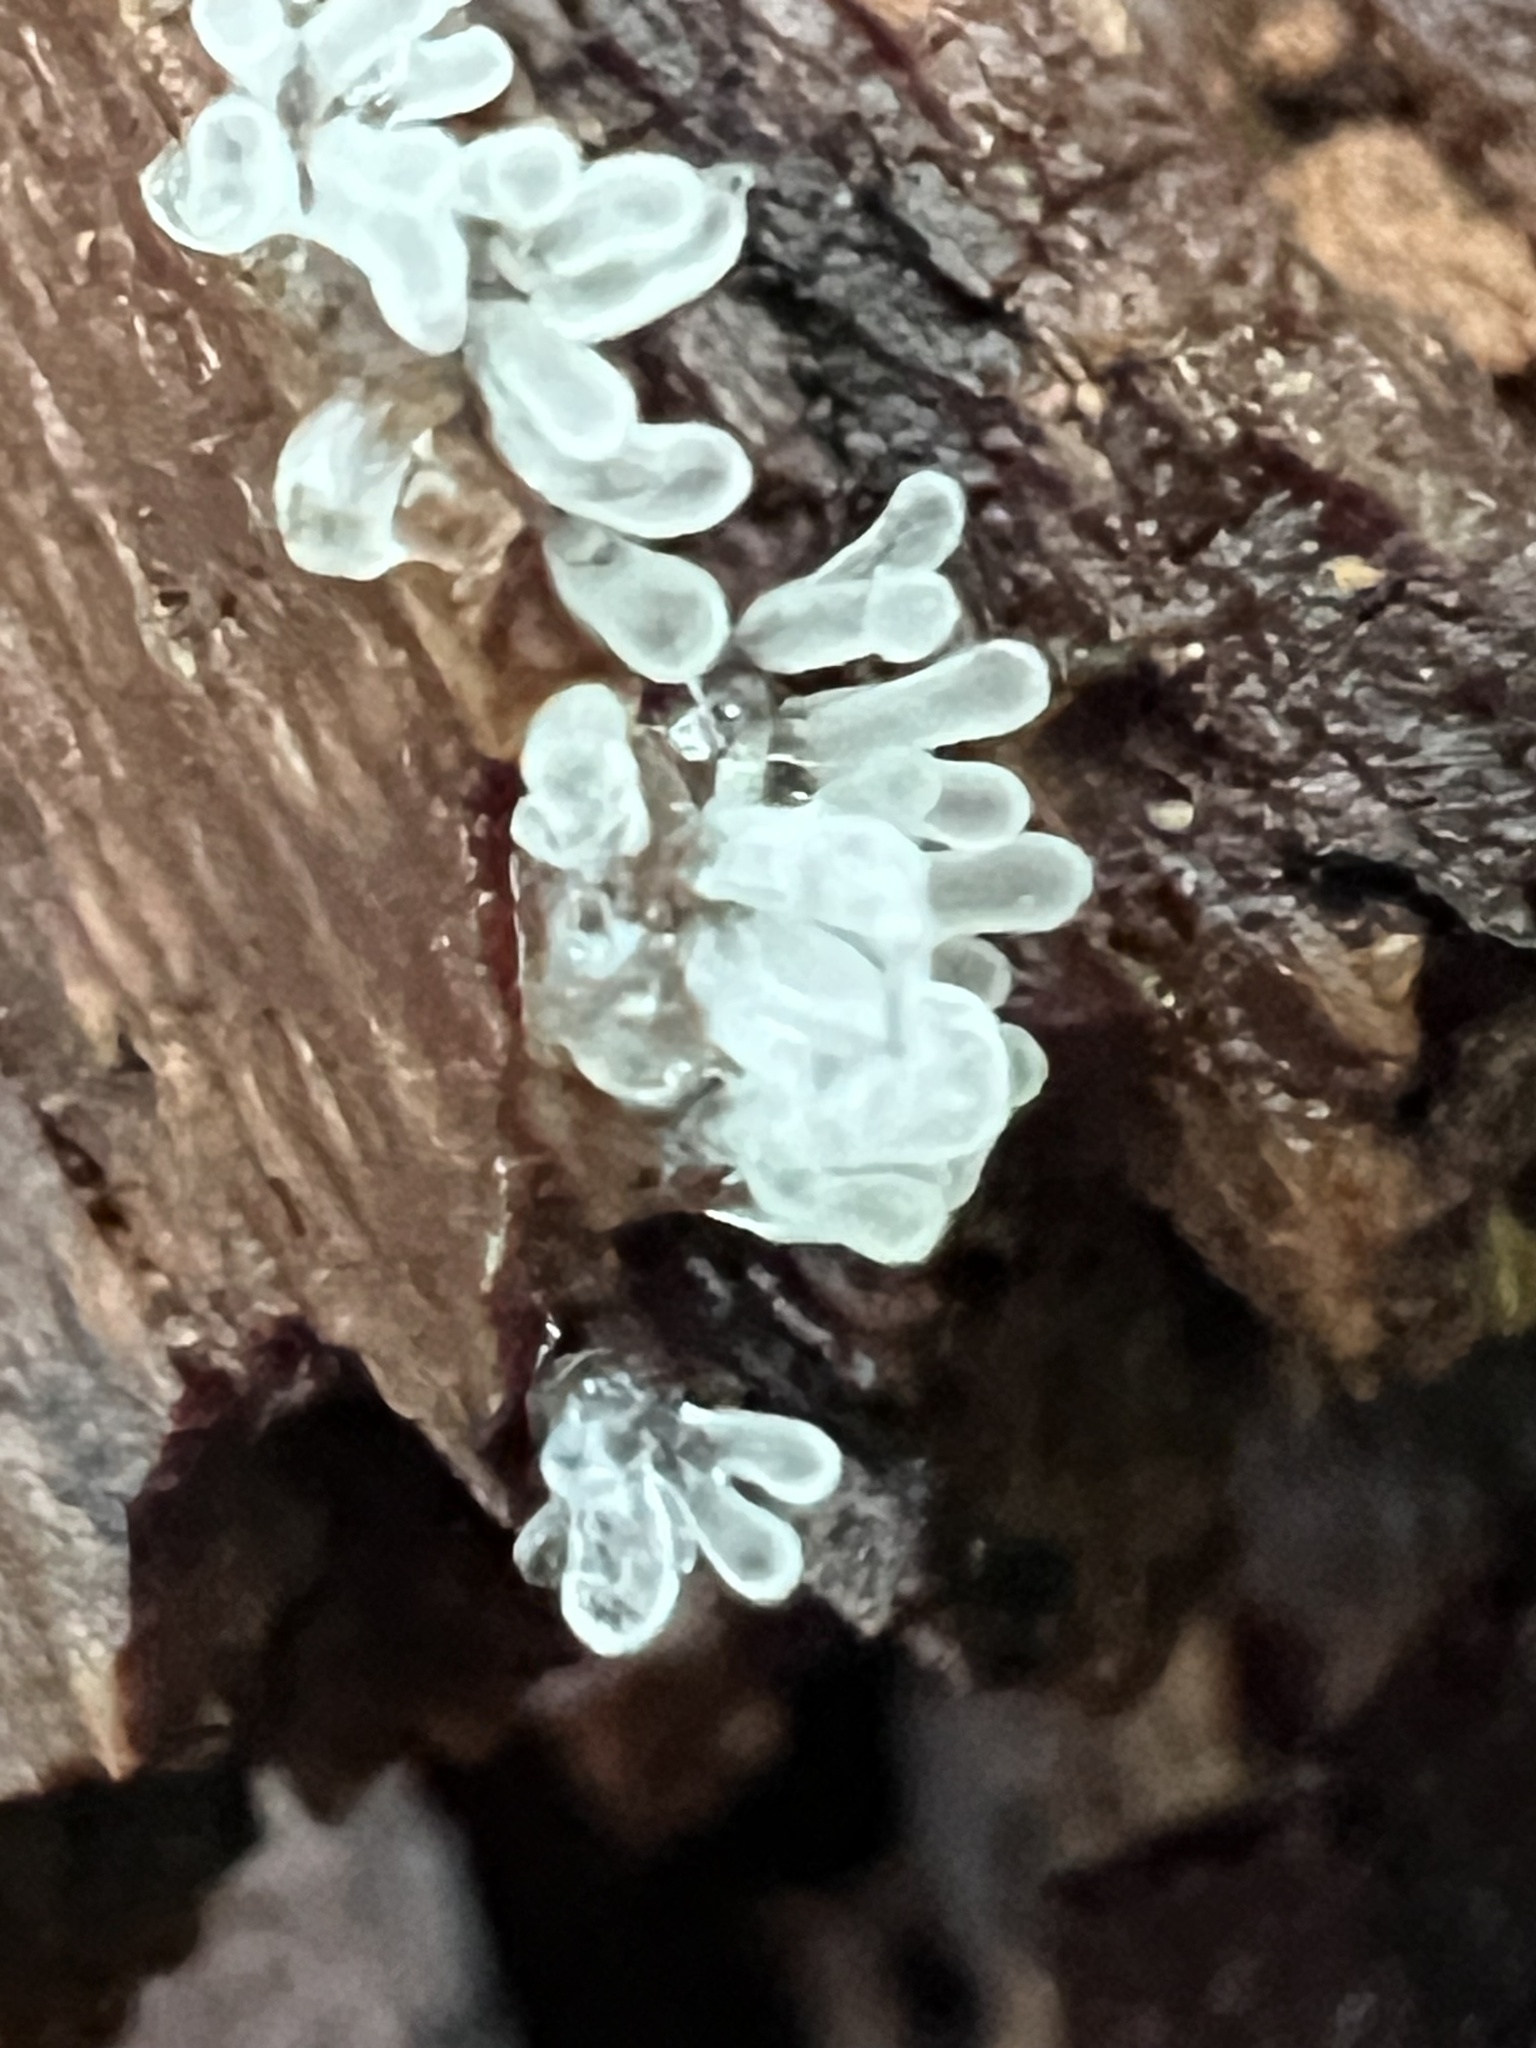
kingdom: Protozoa
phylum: Mycetozoa
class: Protosteliomycetes
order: Ceratiomyxales
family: Ceratiomyxaceae
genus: Ceratiomyxa
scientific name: Ceratiomyxa fruticulosa
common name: Honeycomb coral slime mold
